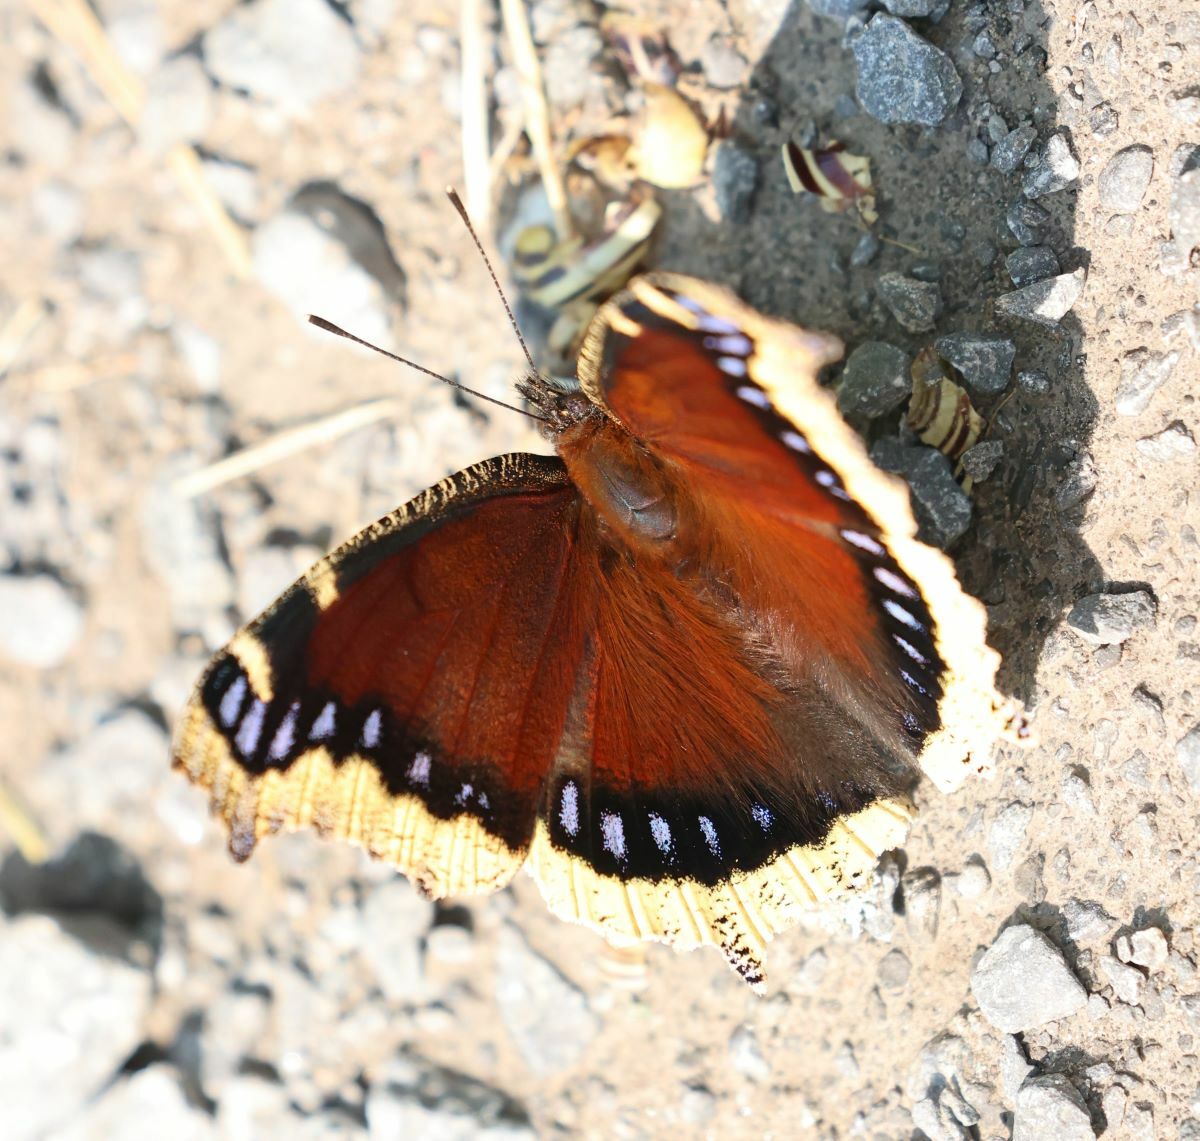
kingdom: Animalia
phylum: Arthropoda
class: Insecta
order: Lepidoptera
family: Nymphalidae
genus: Nymphalis
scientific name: Nymphalis antiopa
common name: Camberwell beauty
